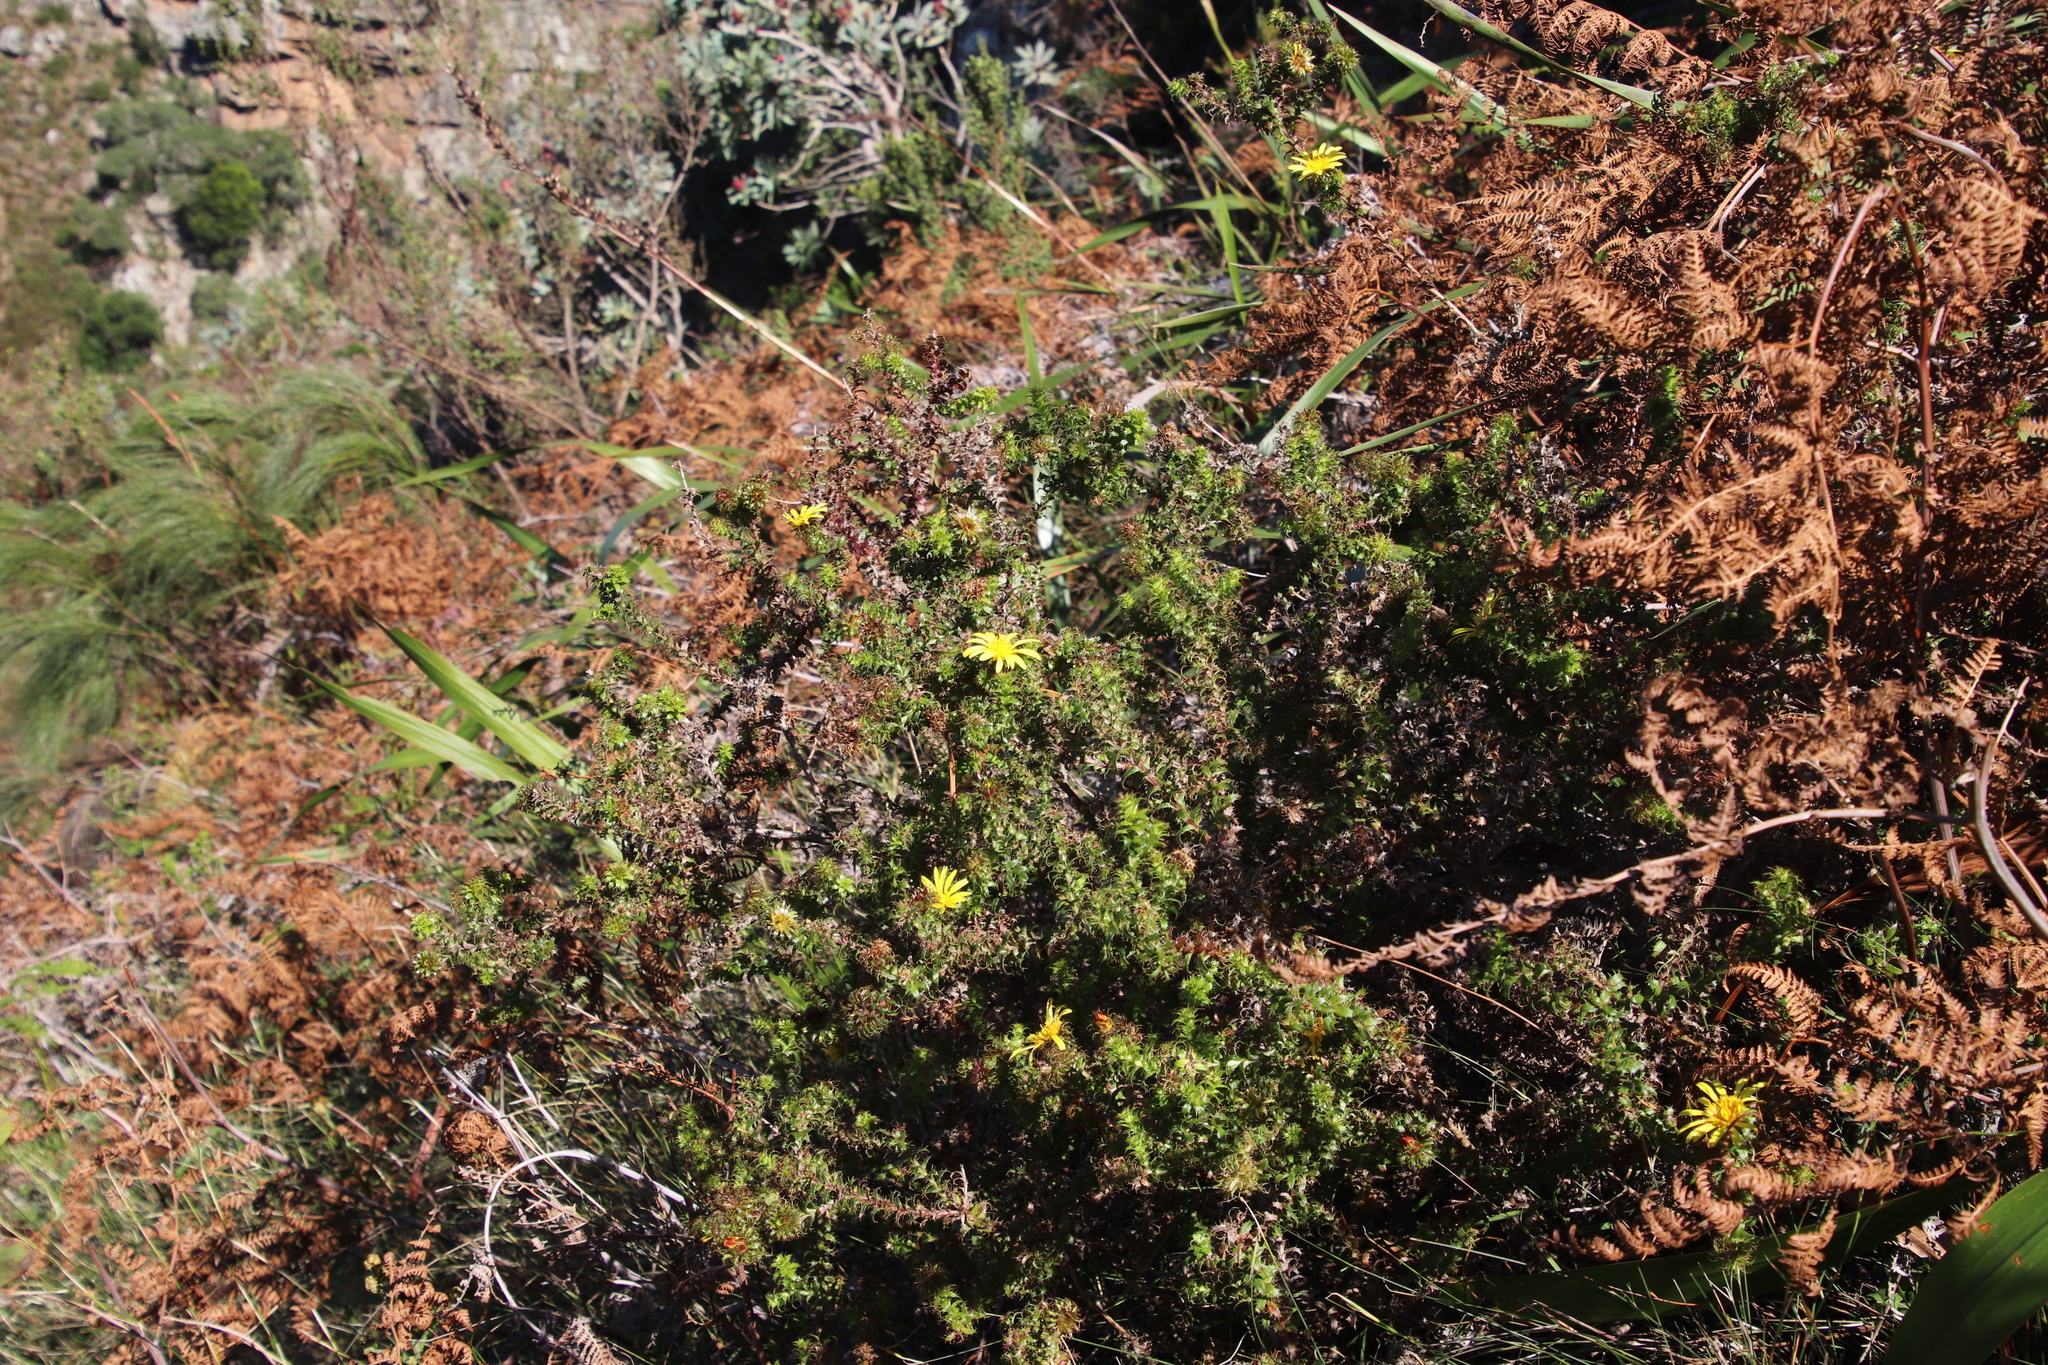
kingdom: Plantae
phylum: Tracheophyta
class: Magnoliopsida
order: Asterales
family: Asteraceae
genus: Cullumia
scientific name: Cullumia setosa
